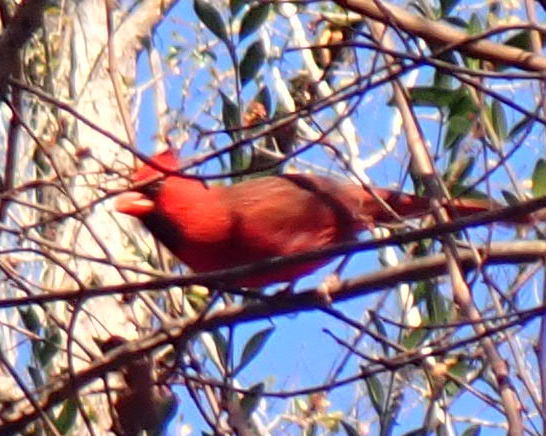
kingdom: Animalia
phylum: Chordata
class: Aves
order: Passeriformes
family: Cardinalidae
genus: Cardinalis
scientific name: Cardinalis cardinalis
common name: Northern cardinal
